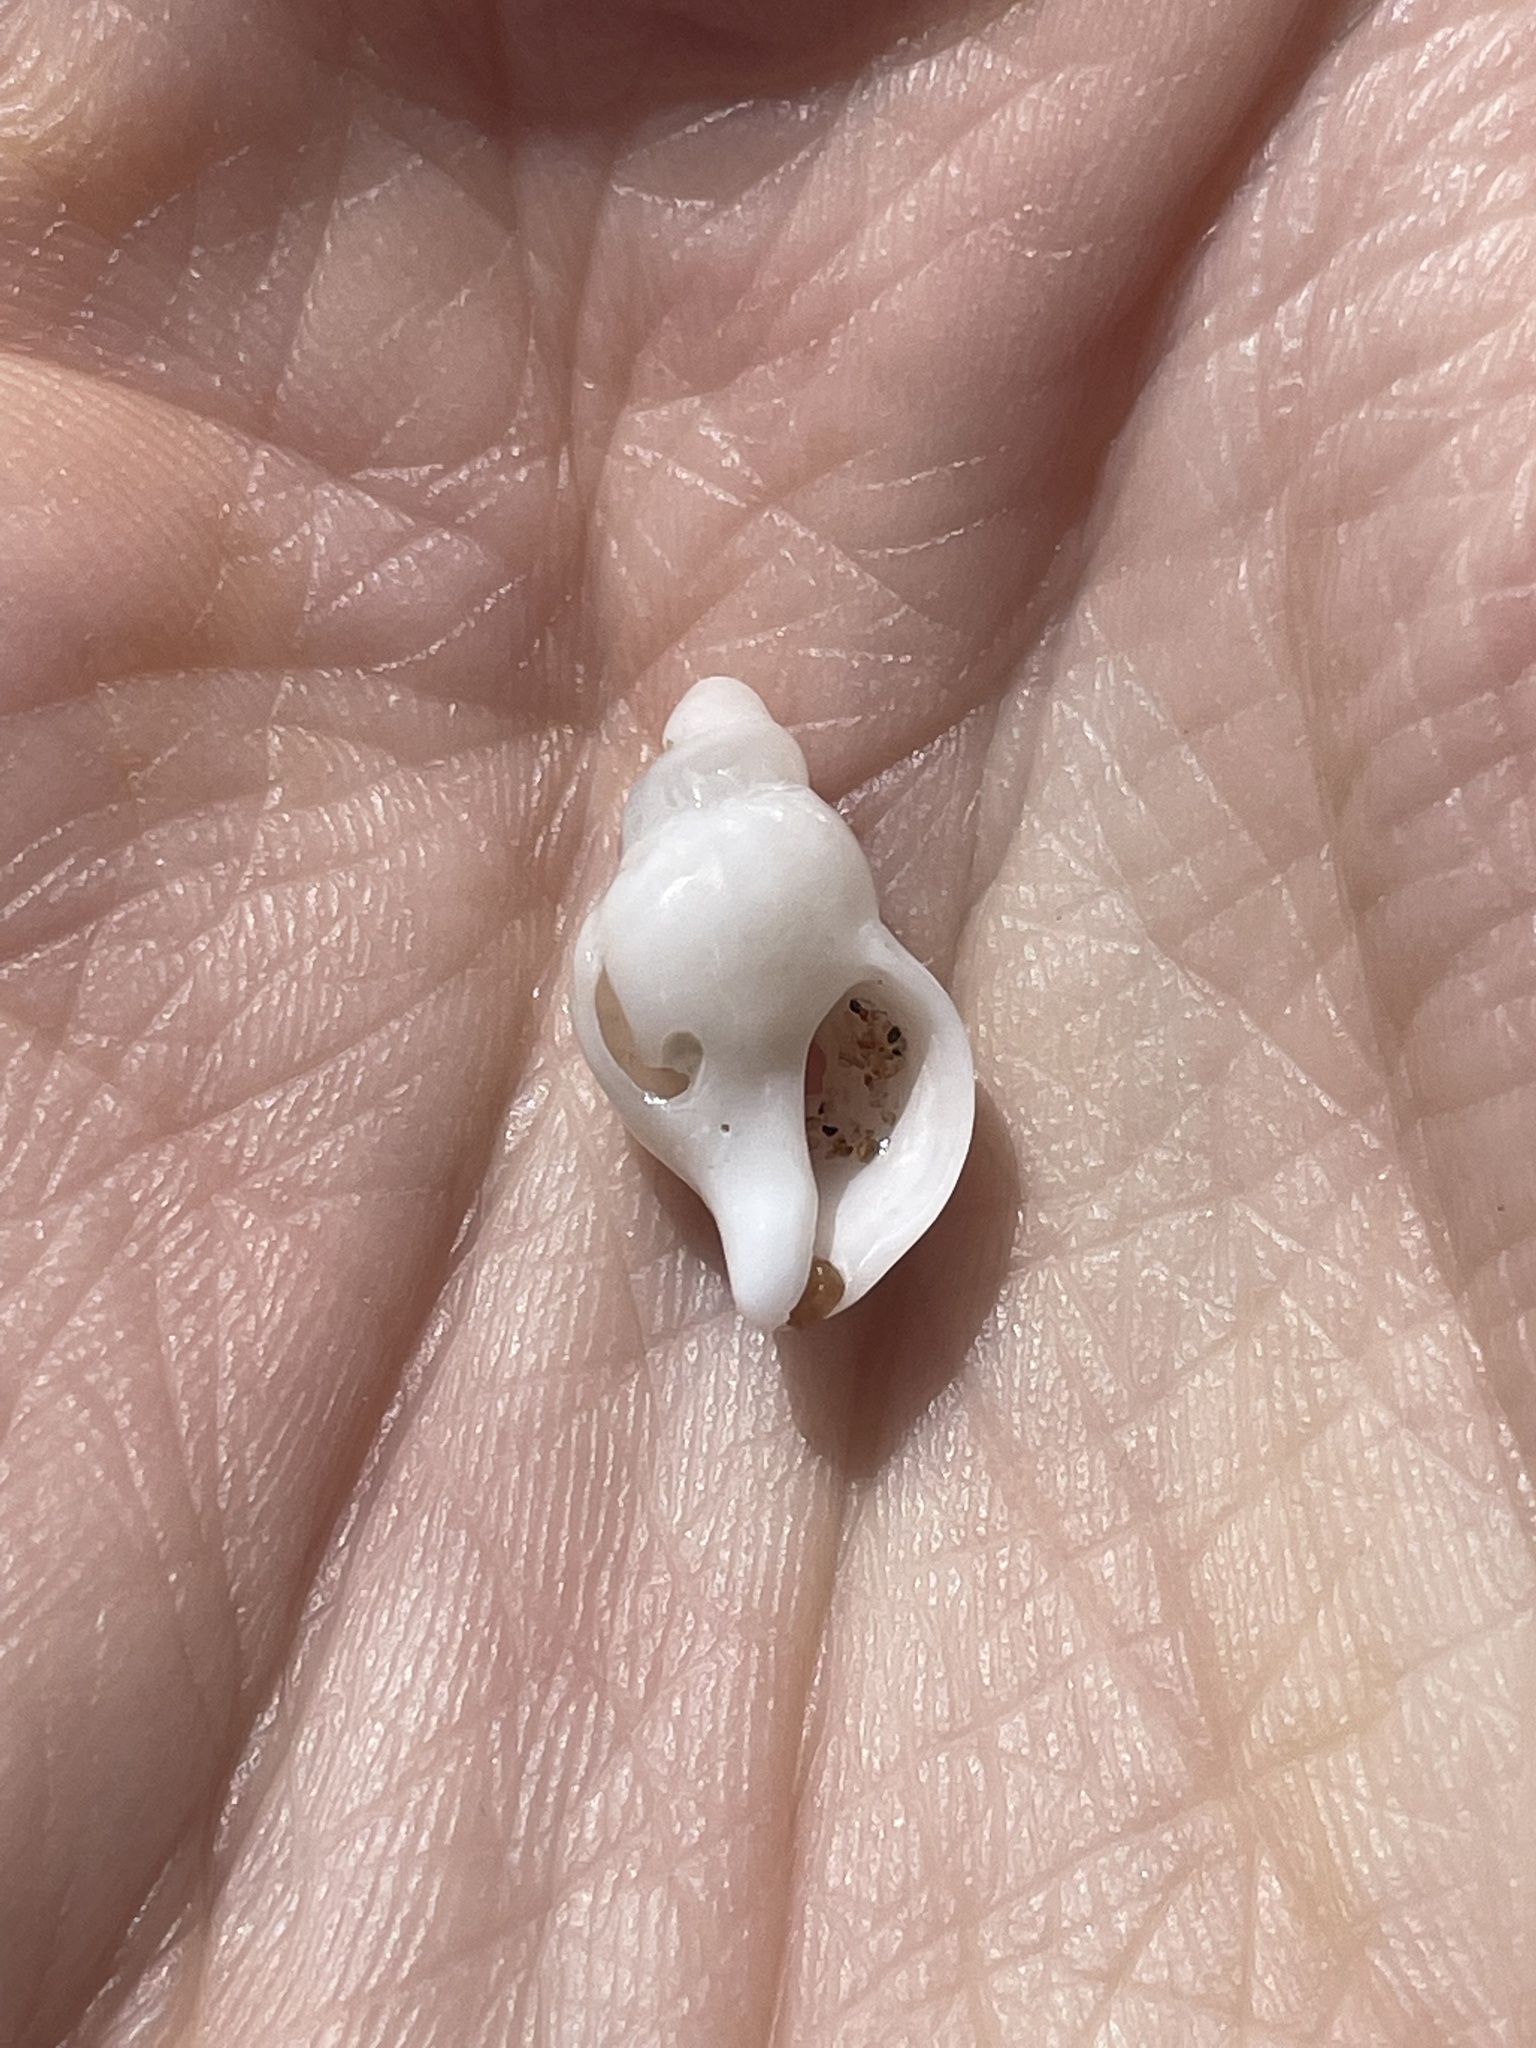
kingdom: Animalia
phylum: Mollusca
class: Gastropoda
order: Neogastropoda
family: Muricidae
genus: Urosalpinx
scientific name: Urosalpinx cinerea
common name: American sting winkle
